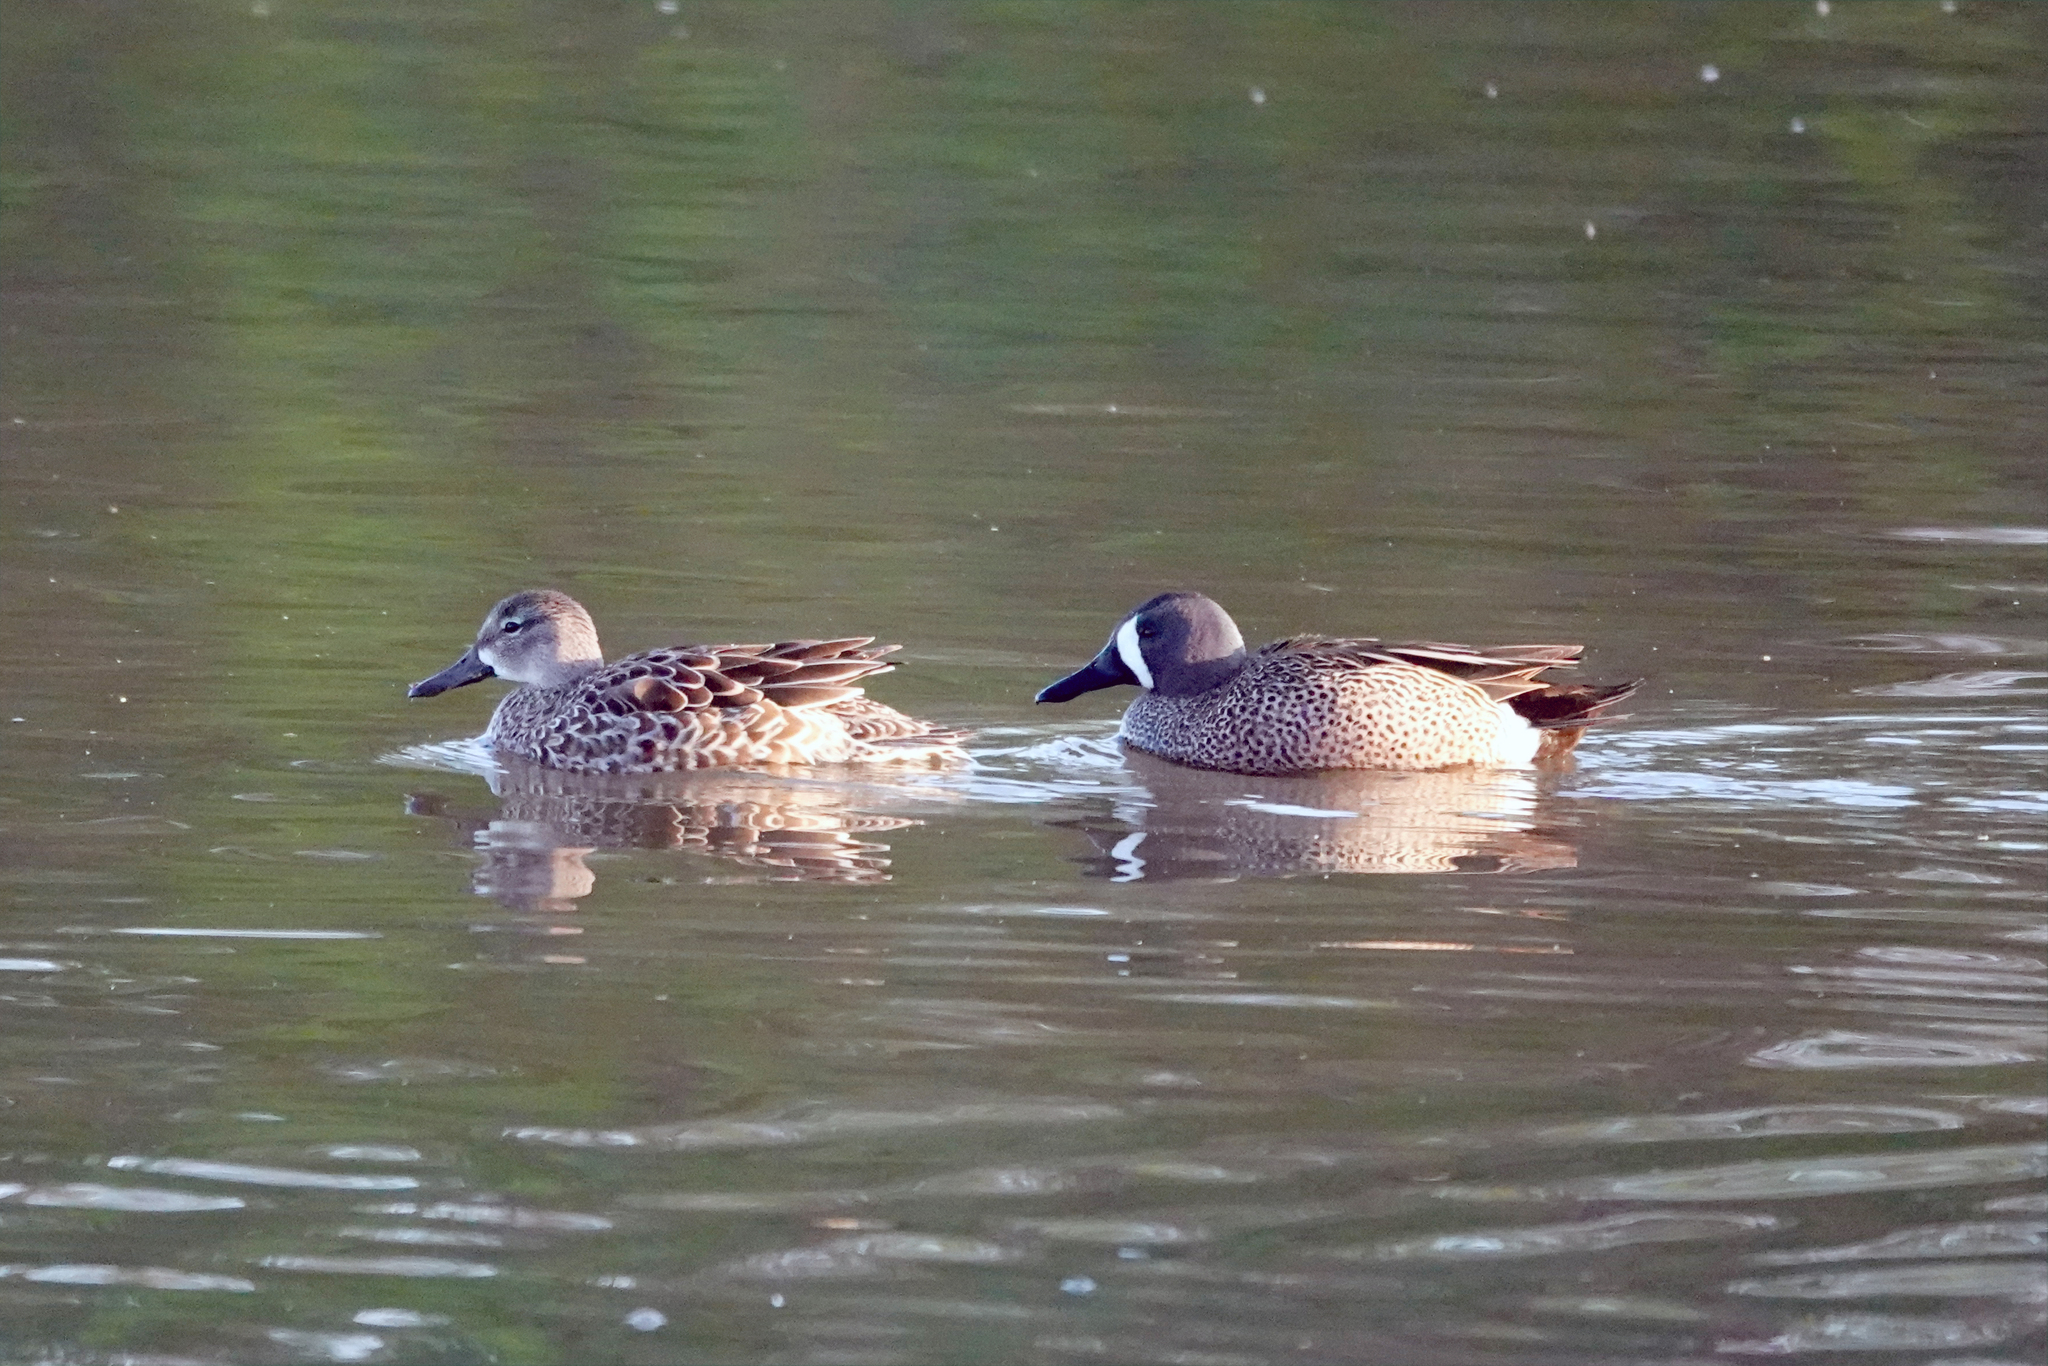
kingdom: Animalia
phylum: Chordata
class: Aves
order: Anseriformes
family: Anatidae
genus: Spatula
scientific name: Spatula discors
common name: Blue-winged teal
